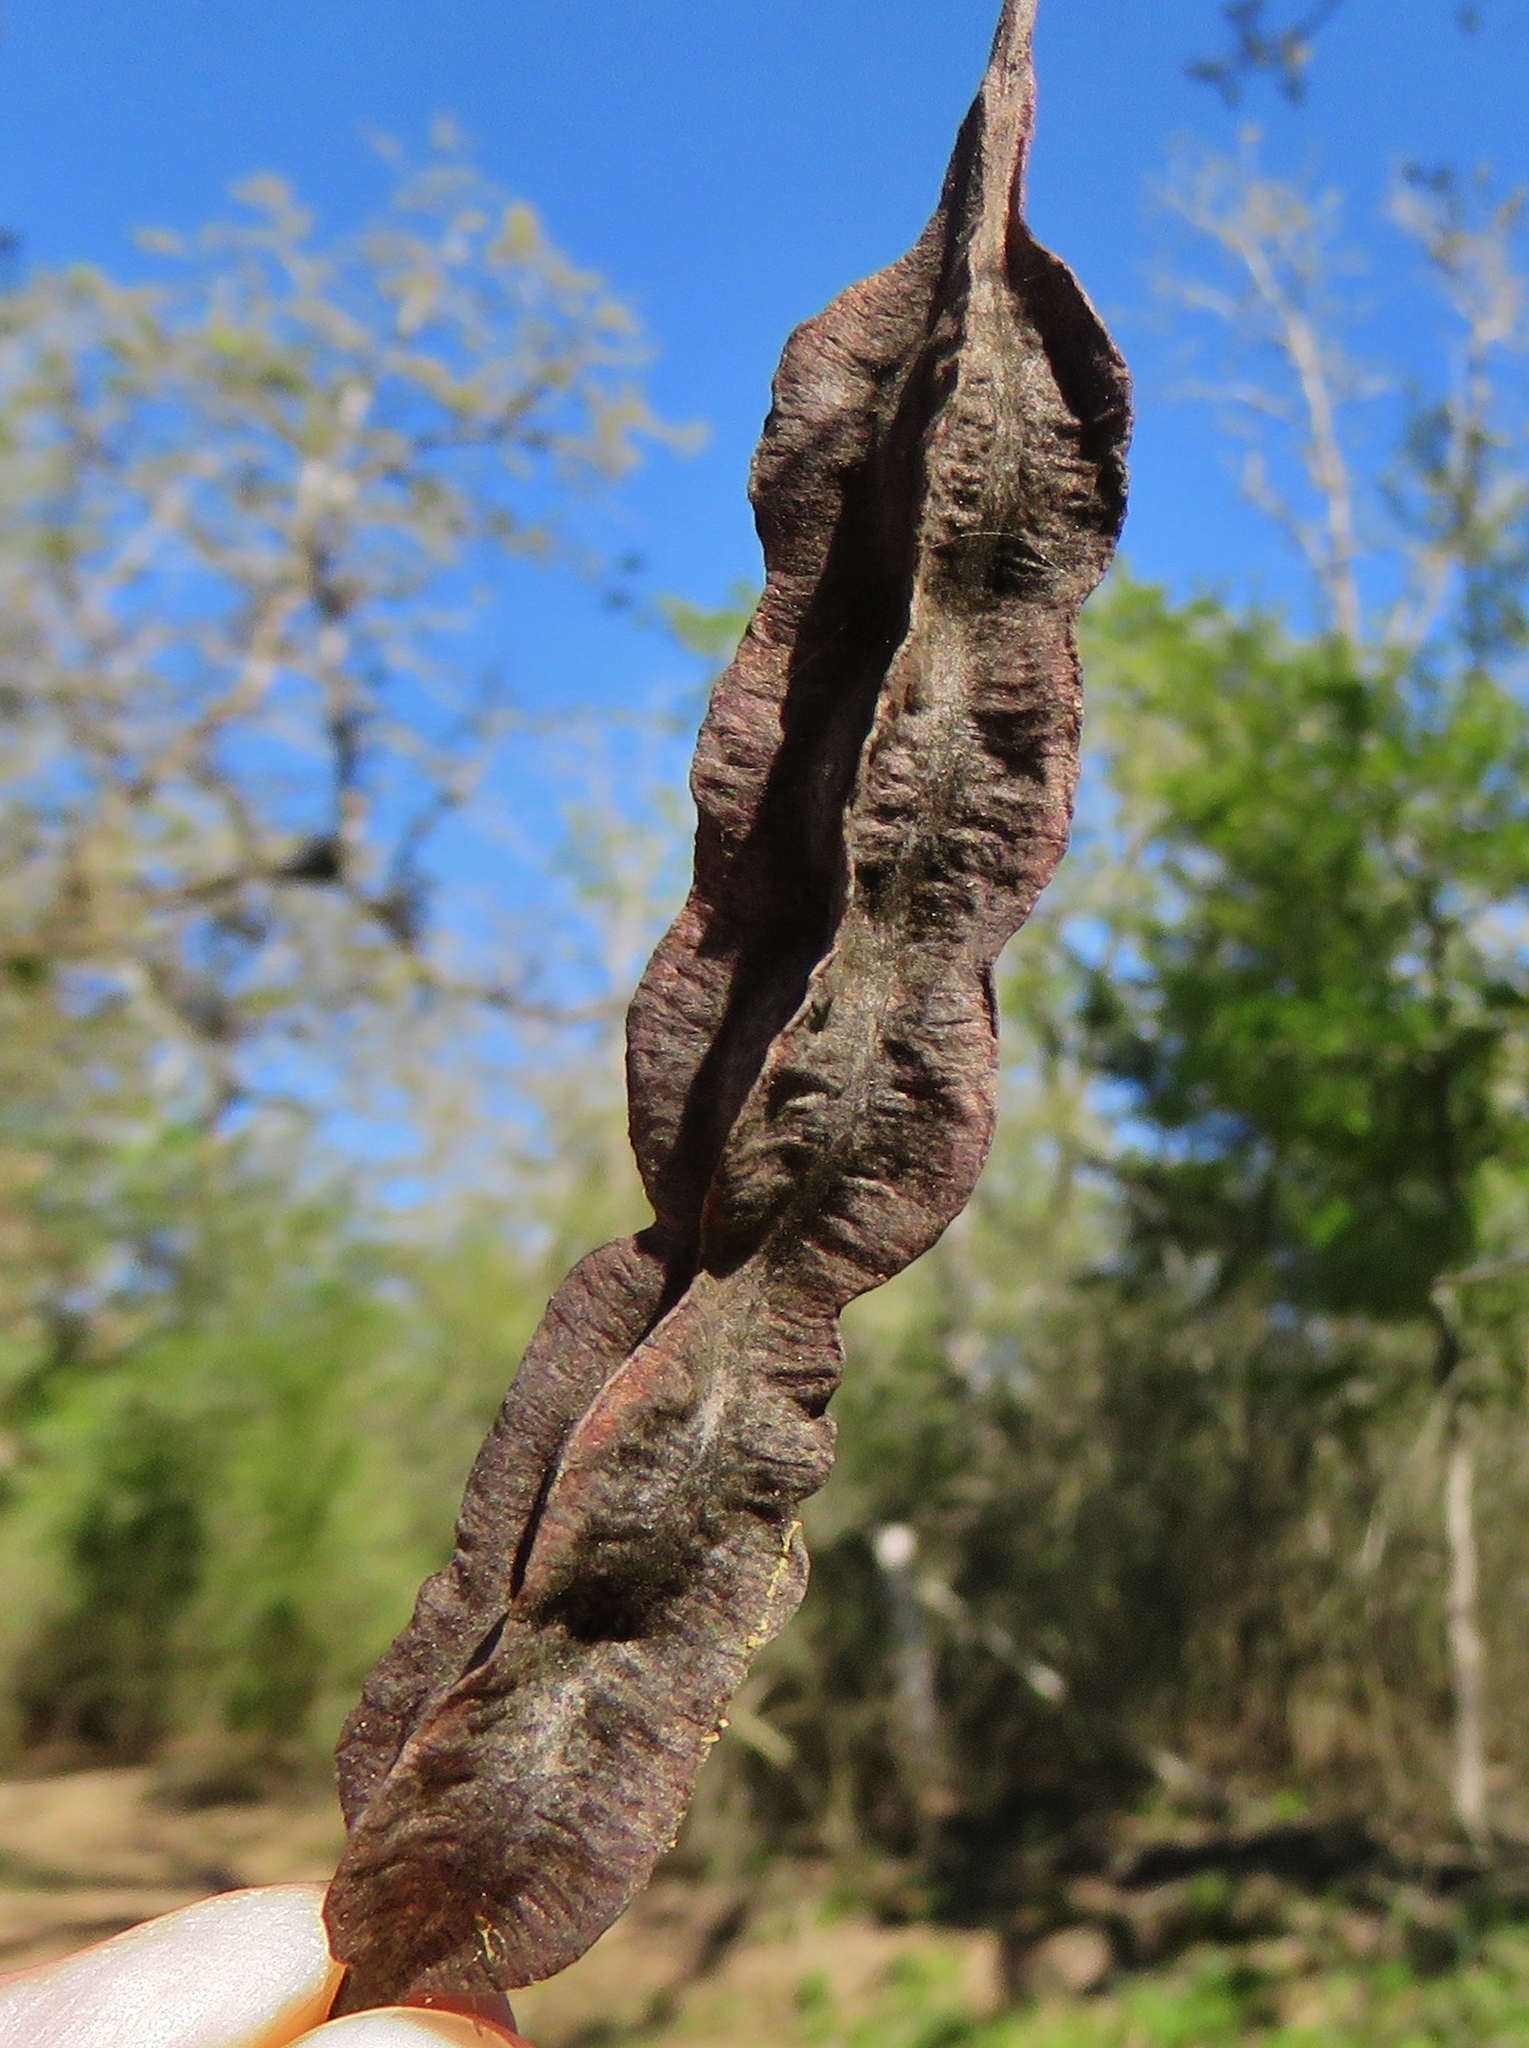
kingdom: Plantae
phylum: Tracheophyta
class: Magnoliopsida
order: Fabales
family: Fabaceae
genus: Sesbania
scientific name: Sesbania drummondii
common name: Poison-bean
